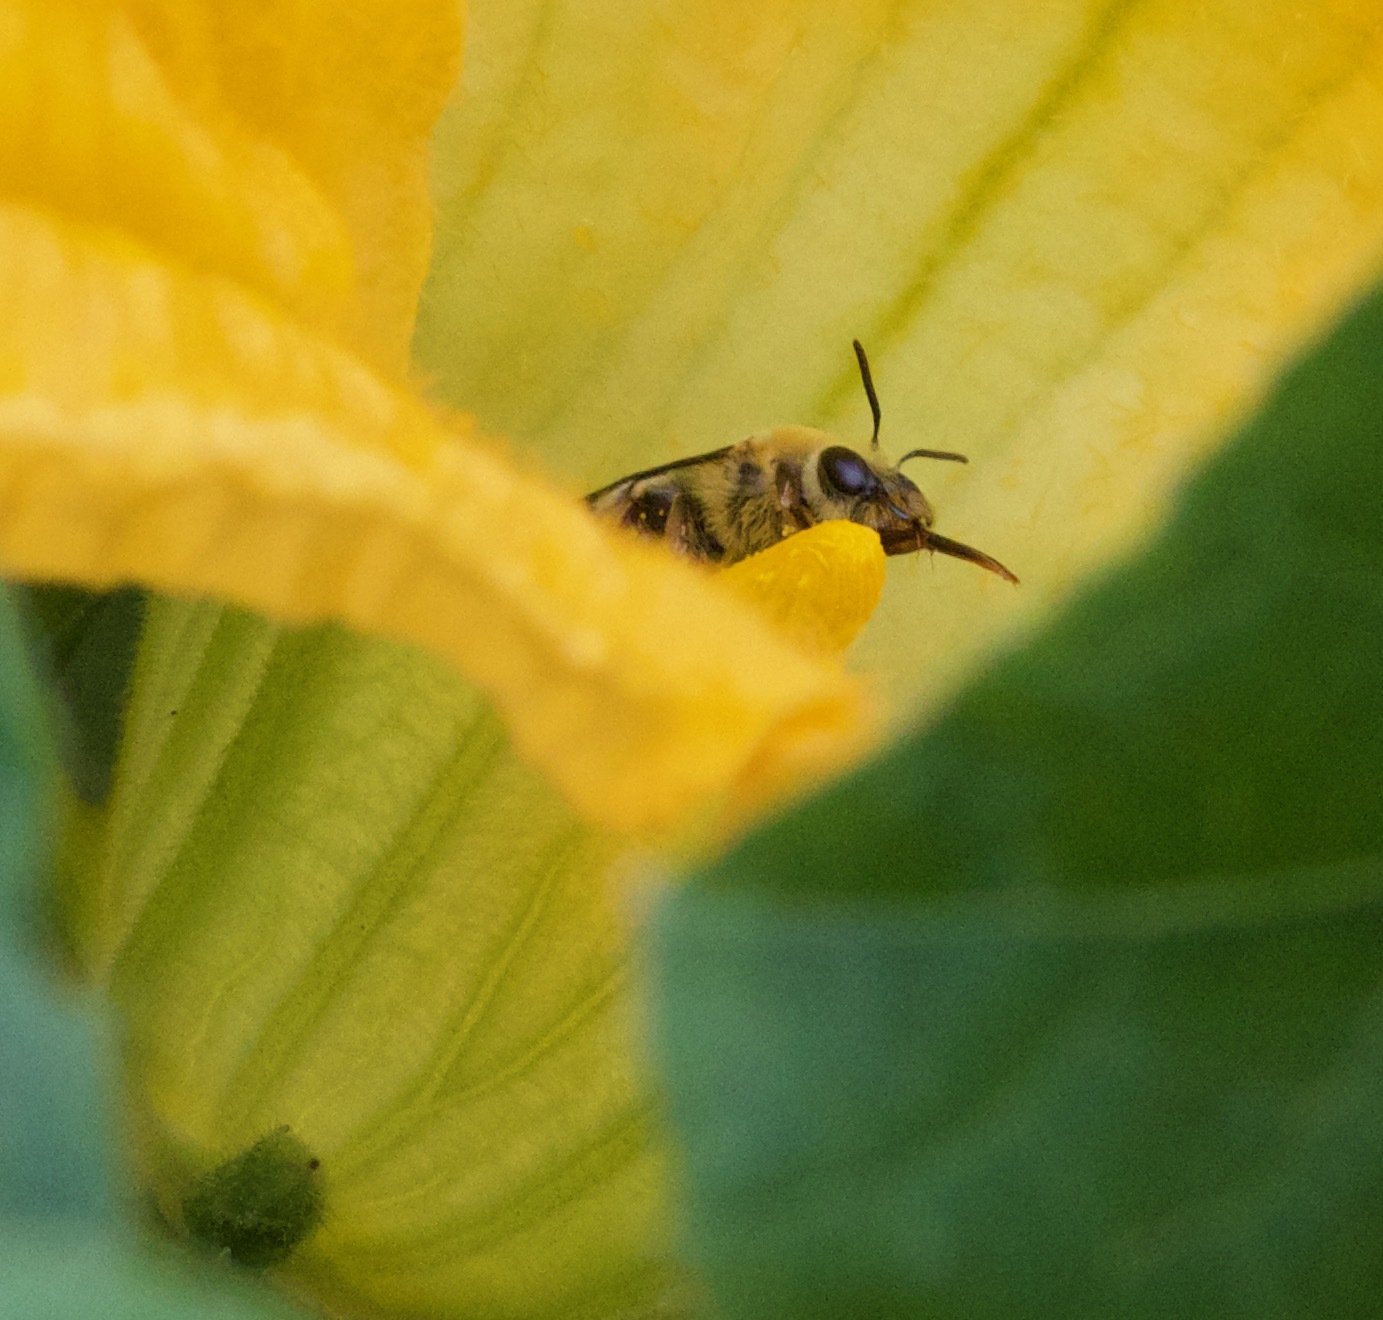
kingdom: Animalia
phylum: Arthropoda
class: Insecta
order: Hymenoptera
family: Apidae
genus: Peponapis
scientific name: Peponapis pruinosa
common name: Pruinose squash bee
